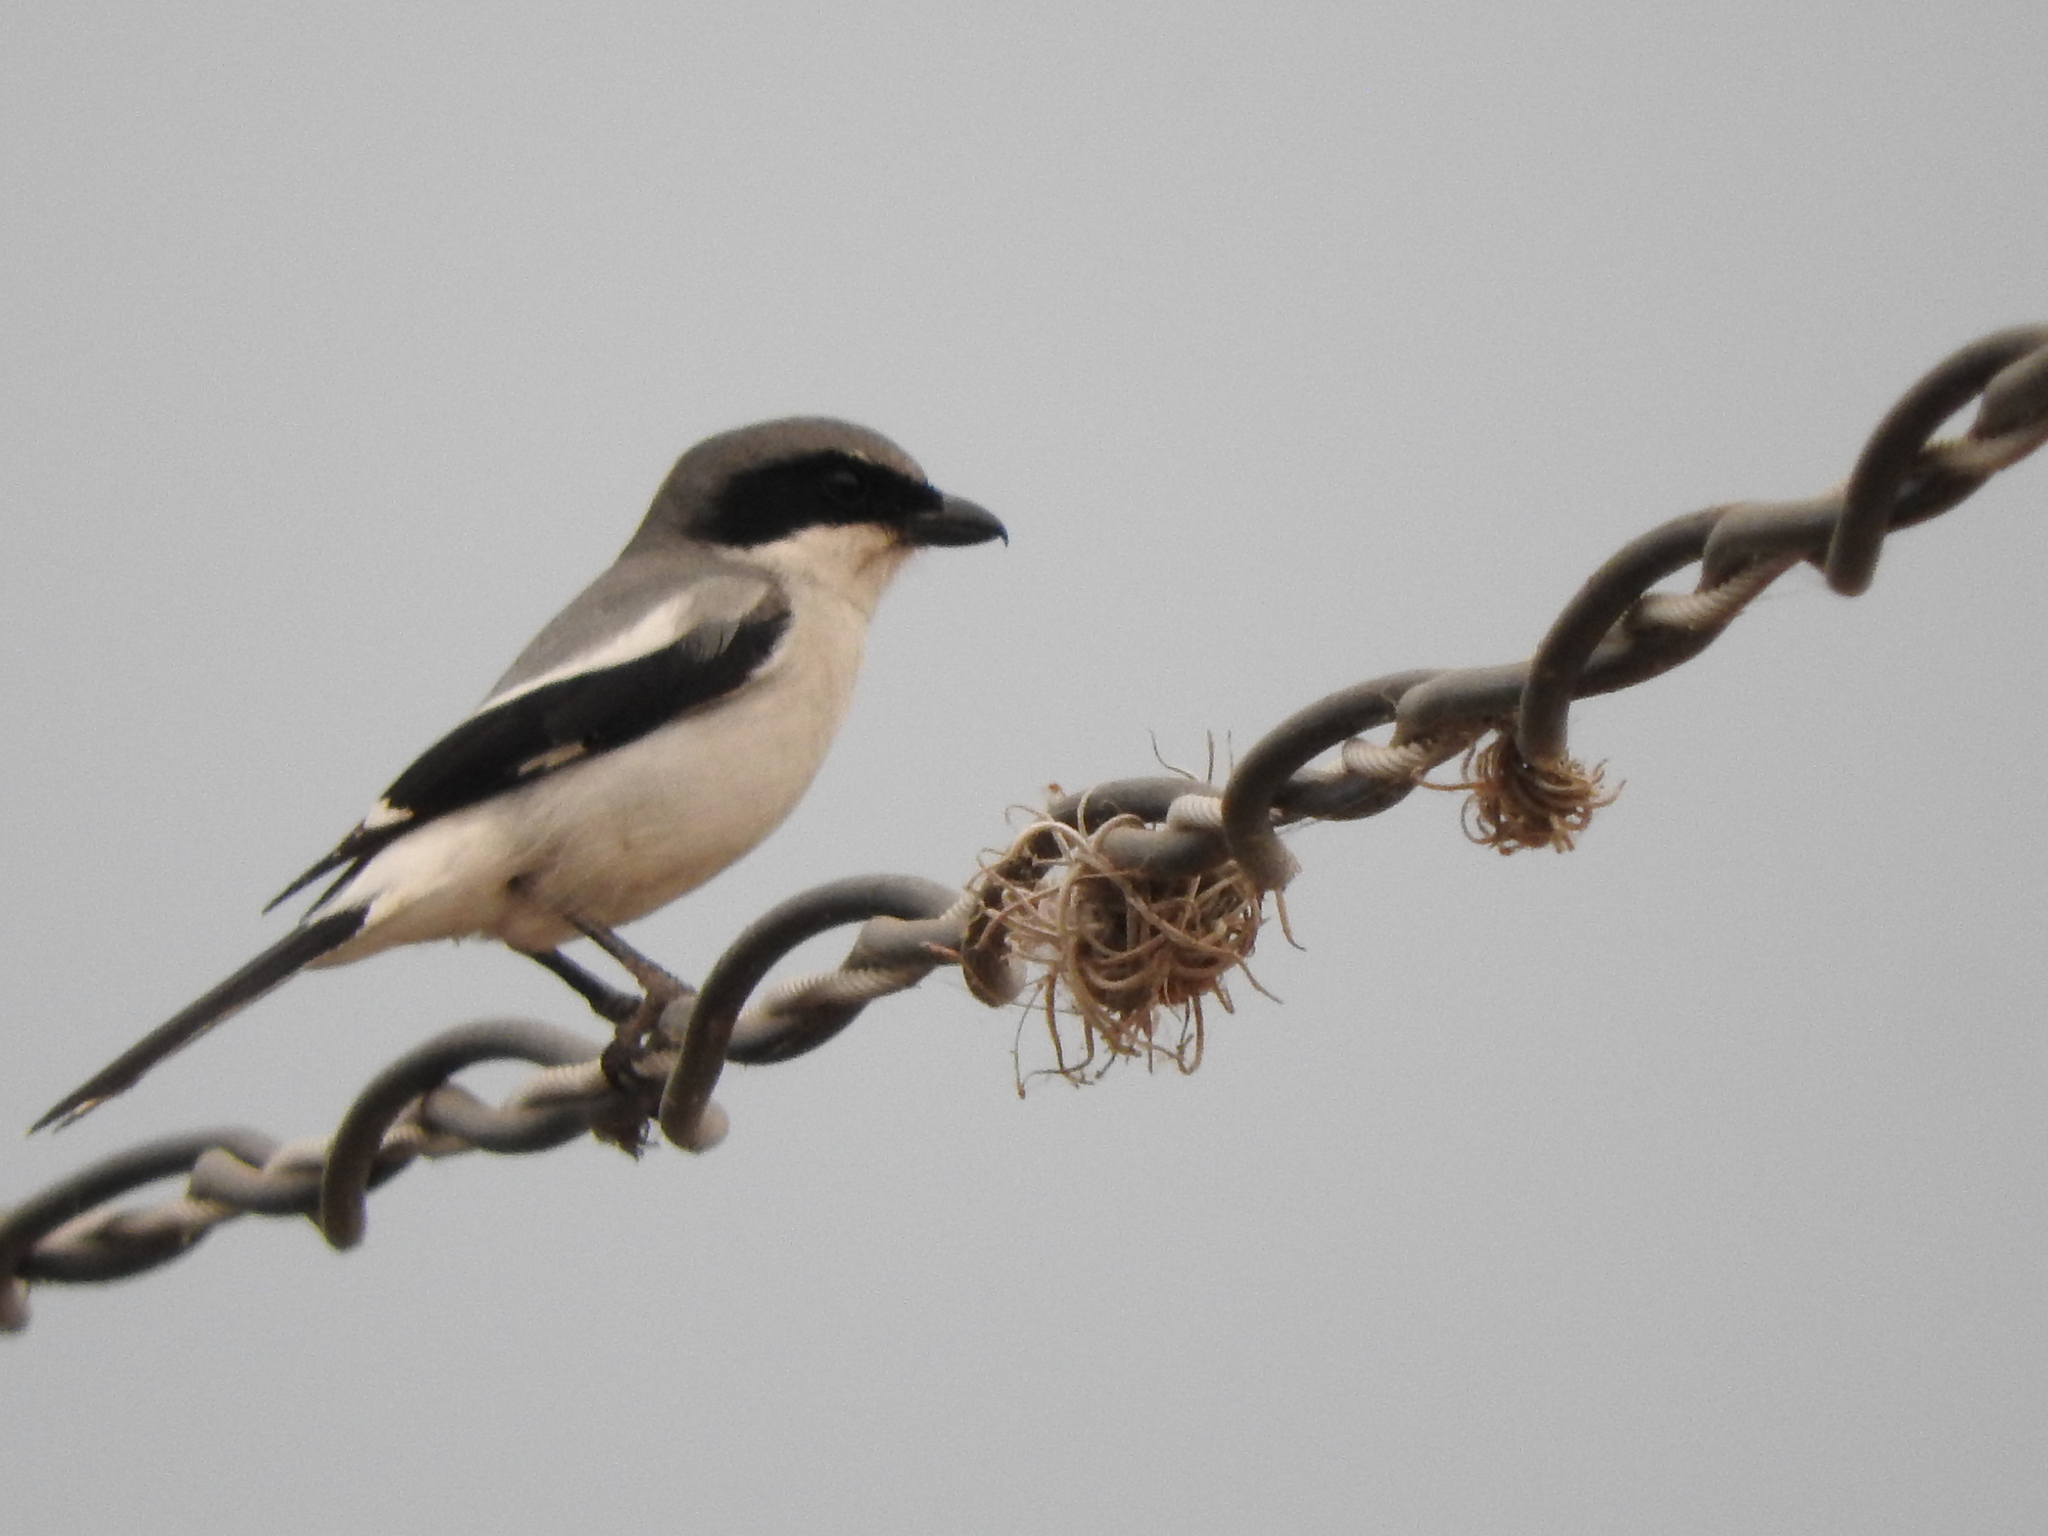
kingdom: Animalia
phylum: Chordata
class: Aves
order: Passeriformes
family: Laniidae
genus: Lanius
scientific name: Lanius ludovicianus
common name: Loggerhead shrike
